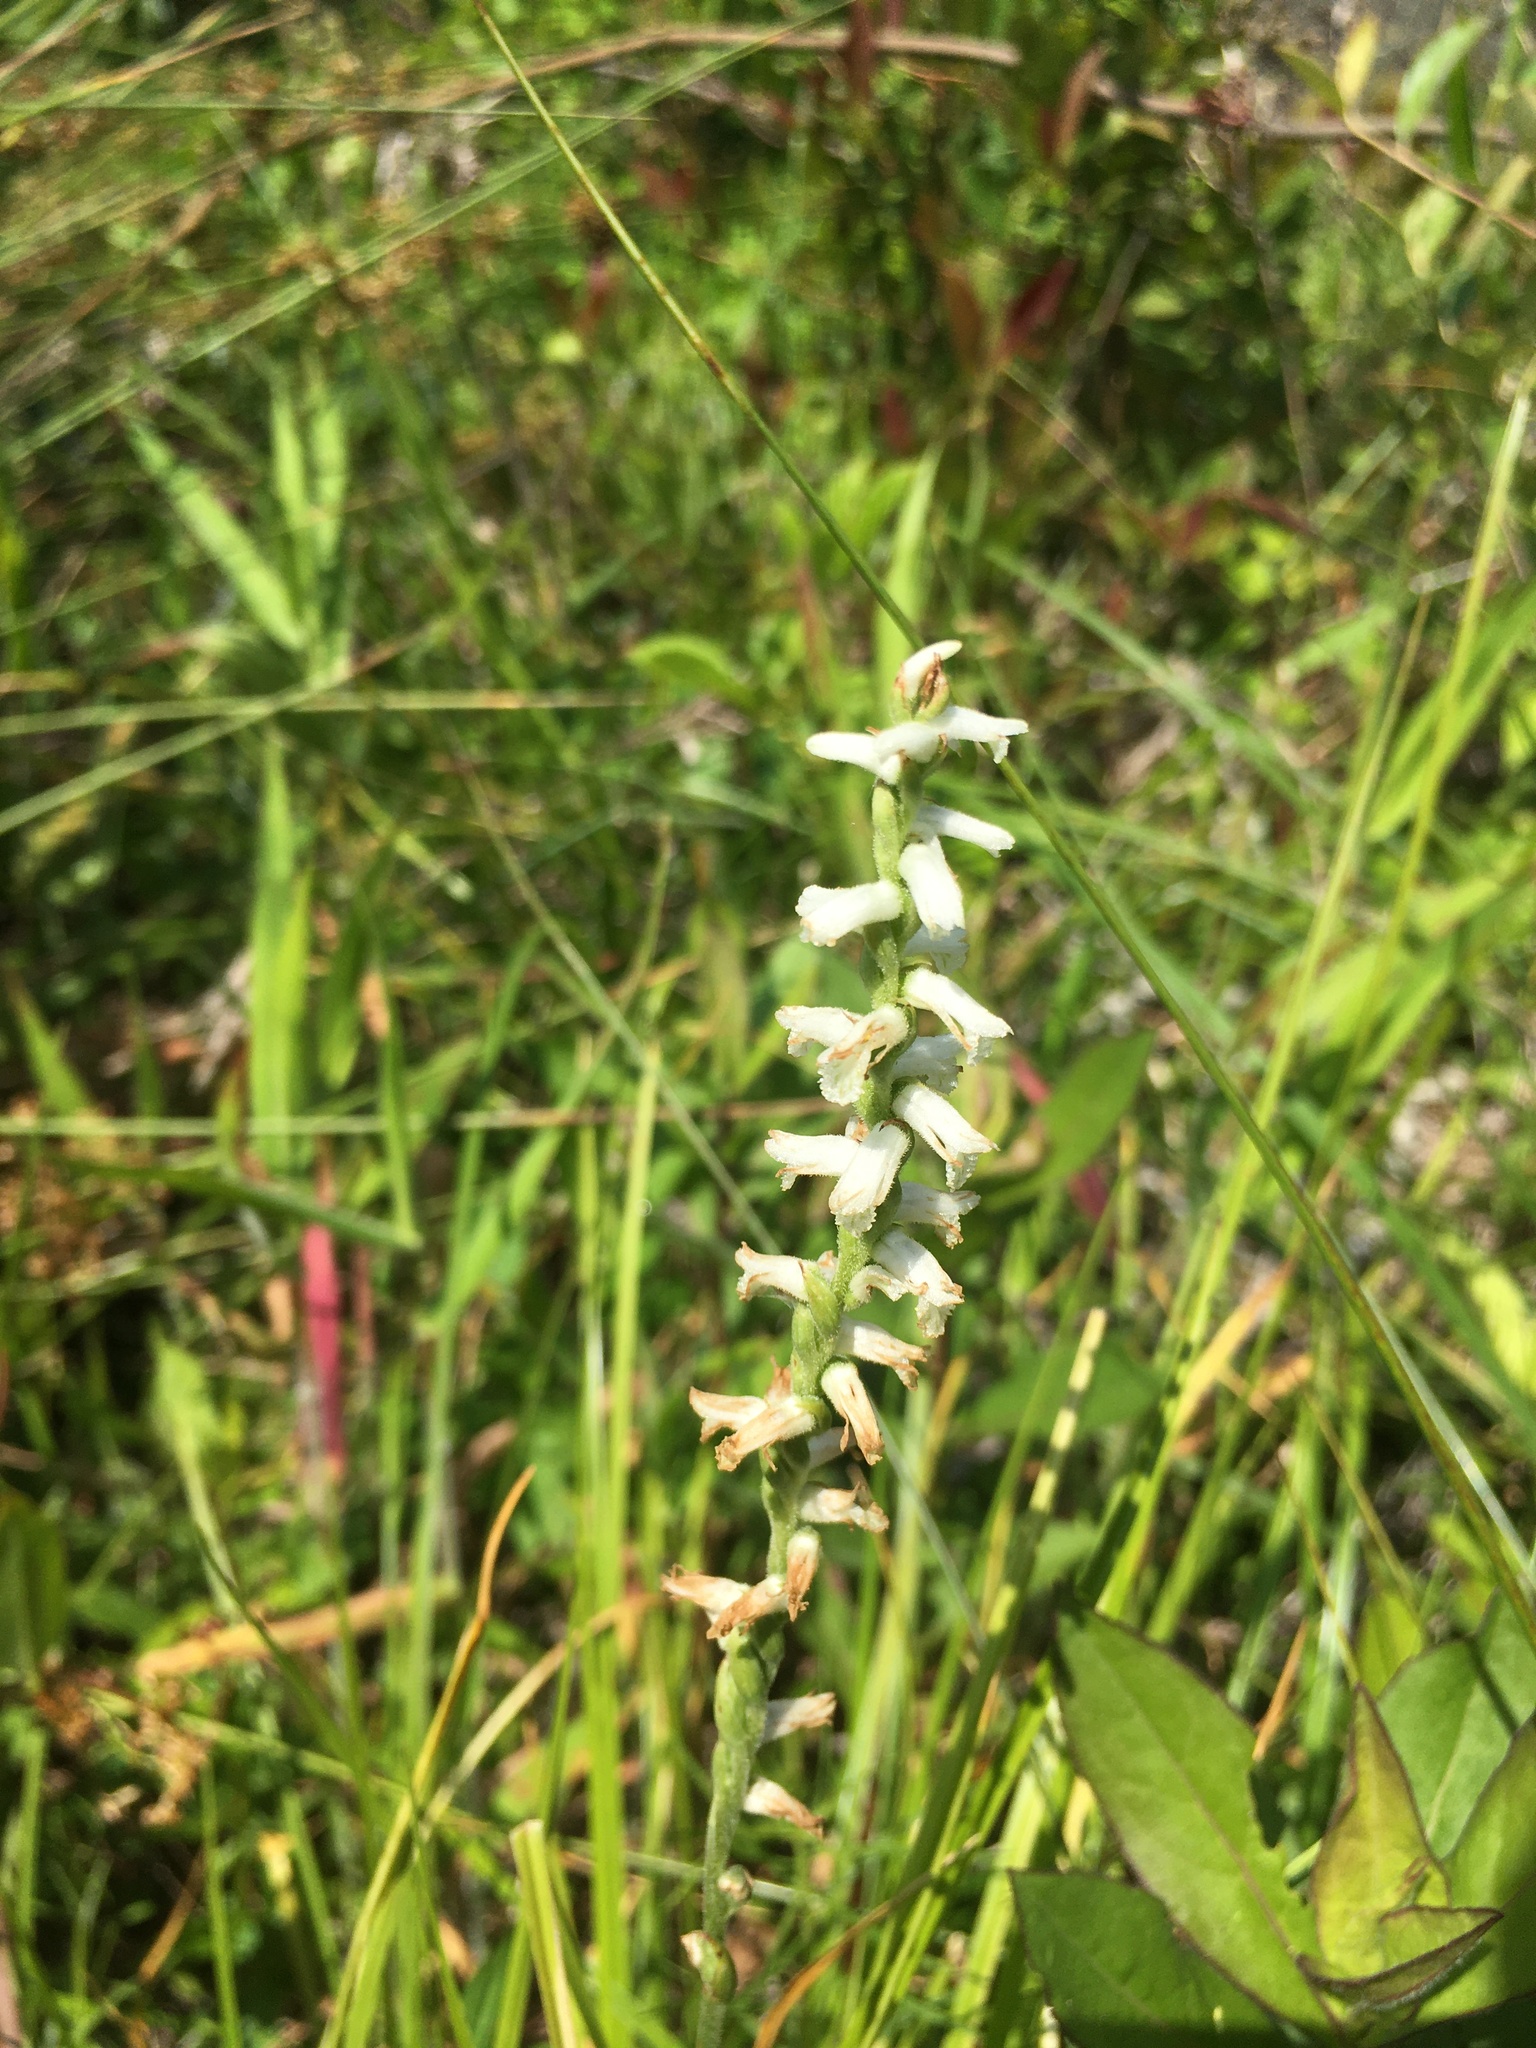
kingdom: Plantae
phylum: Tracheophyta
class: Liliopsida
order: Asparagales
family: Orchidaceae
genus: Spiranthes
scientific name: Spiranthes praecox
